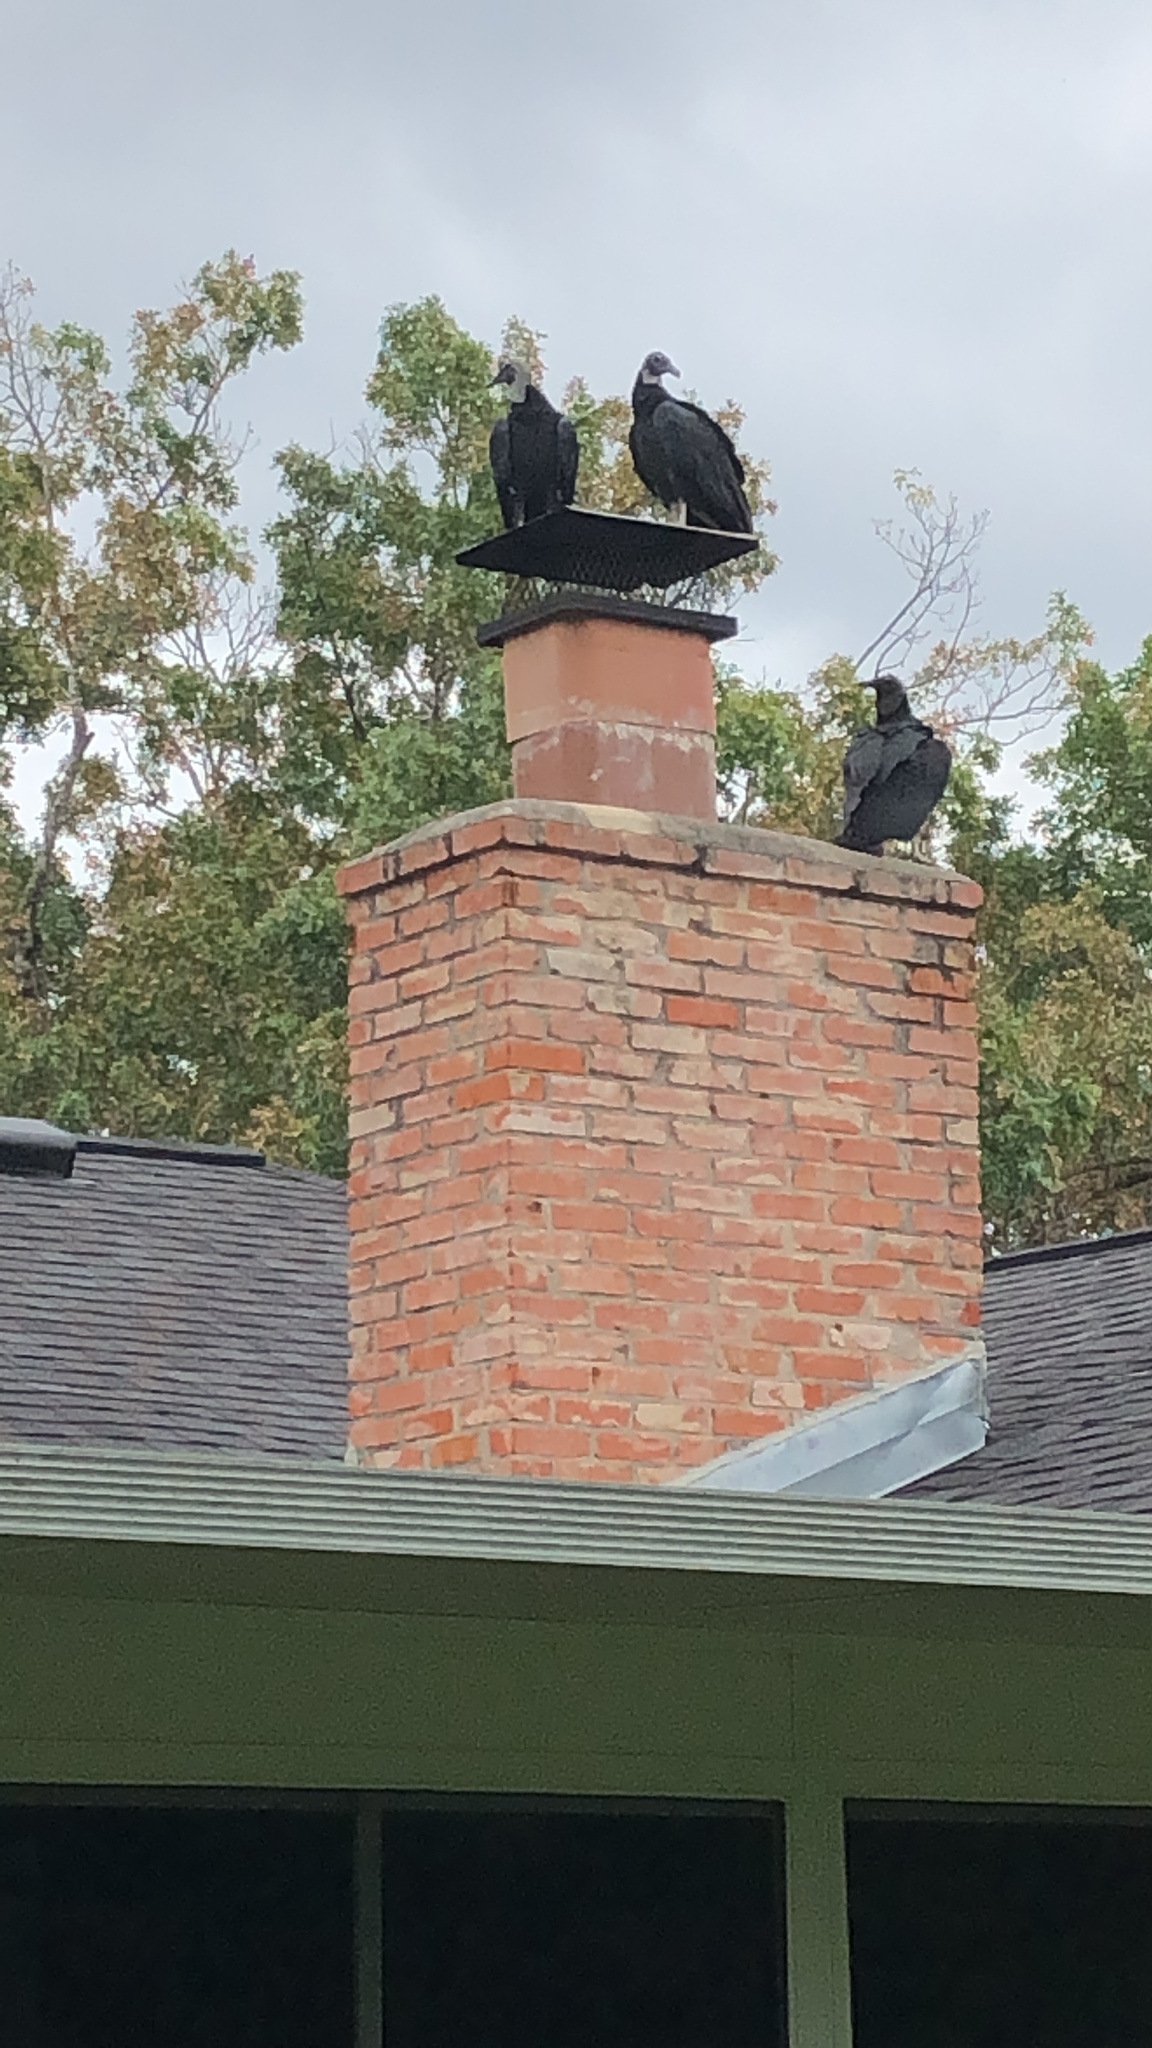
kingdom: Animalia
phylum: Chordata
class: Aves
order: Accipitriformes
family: Cathartidae
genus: Coragyps
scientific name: Coragyps atratus
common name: Black vulture
